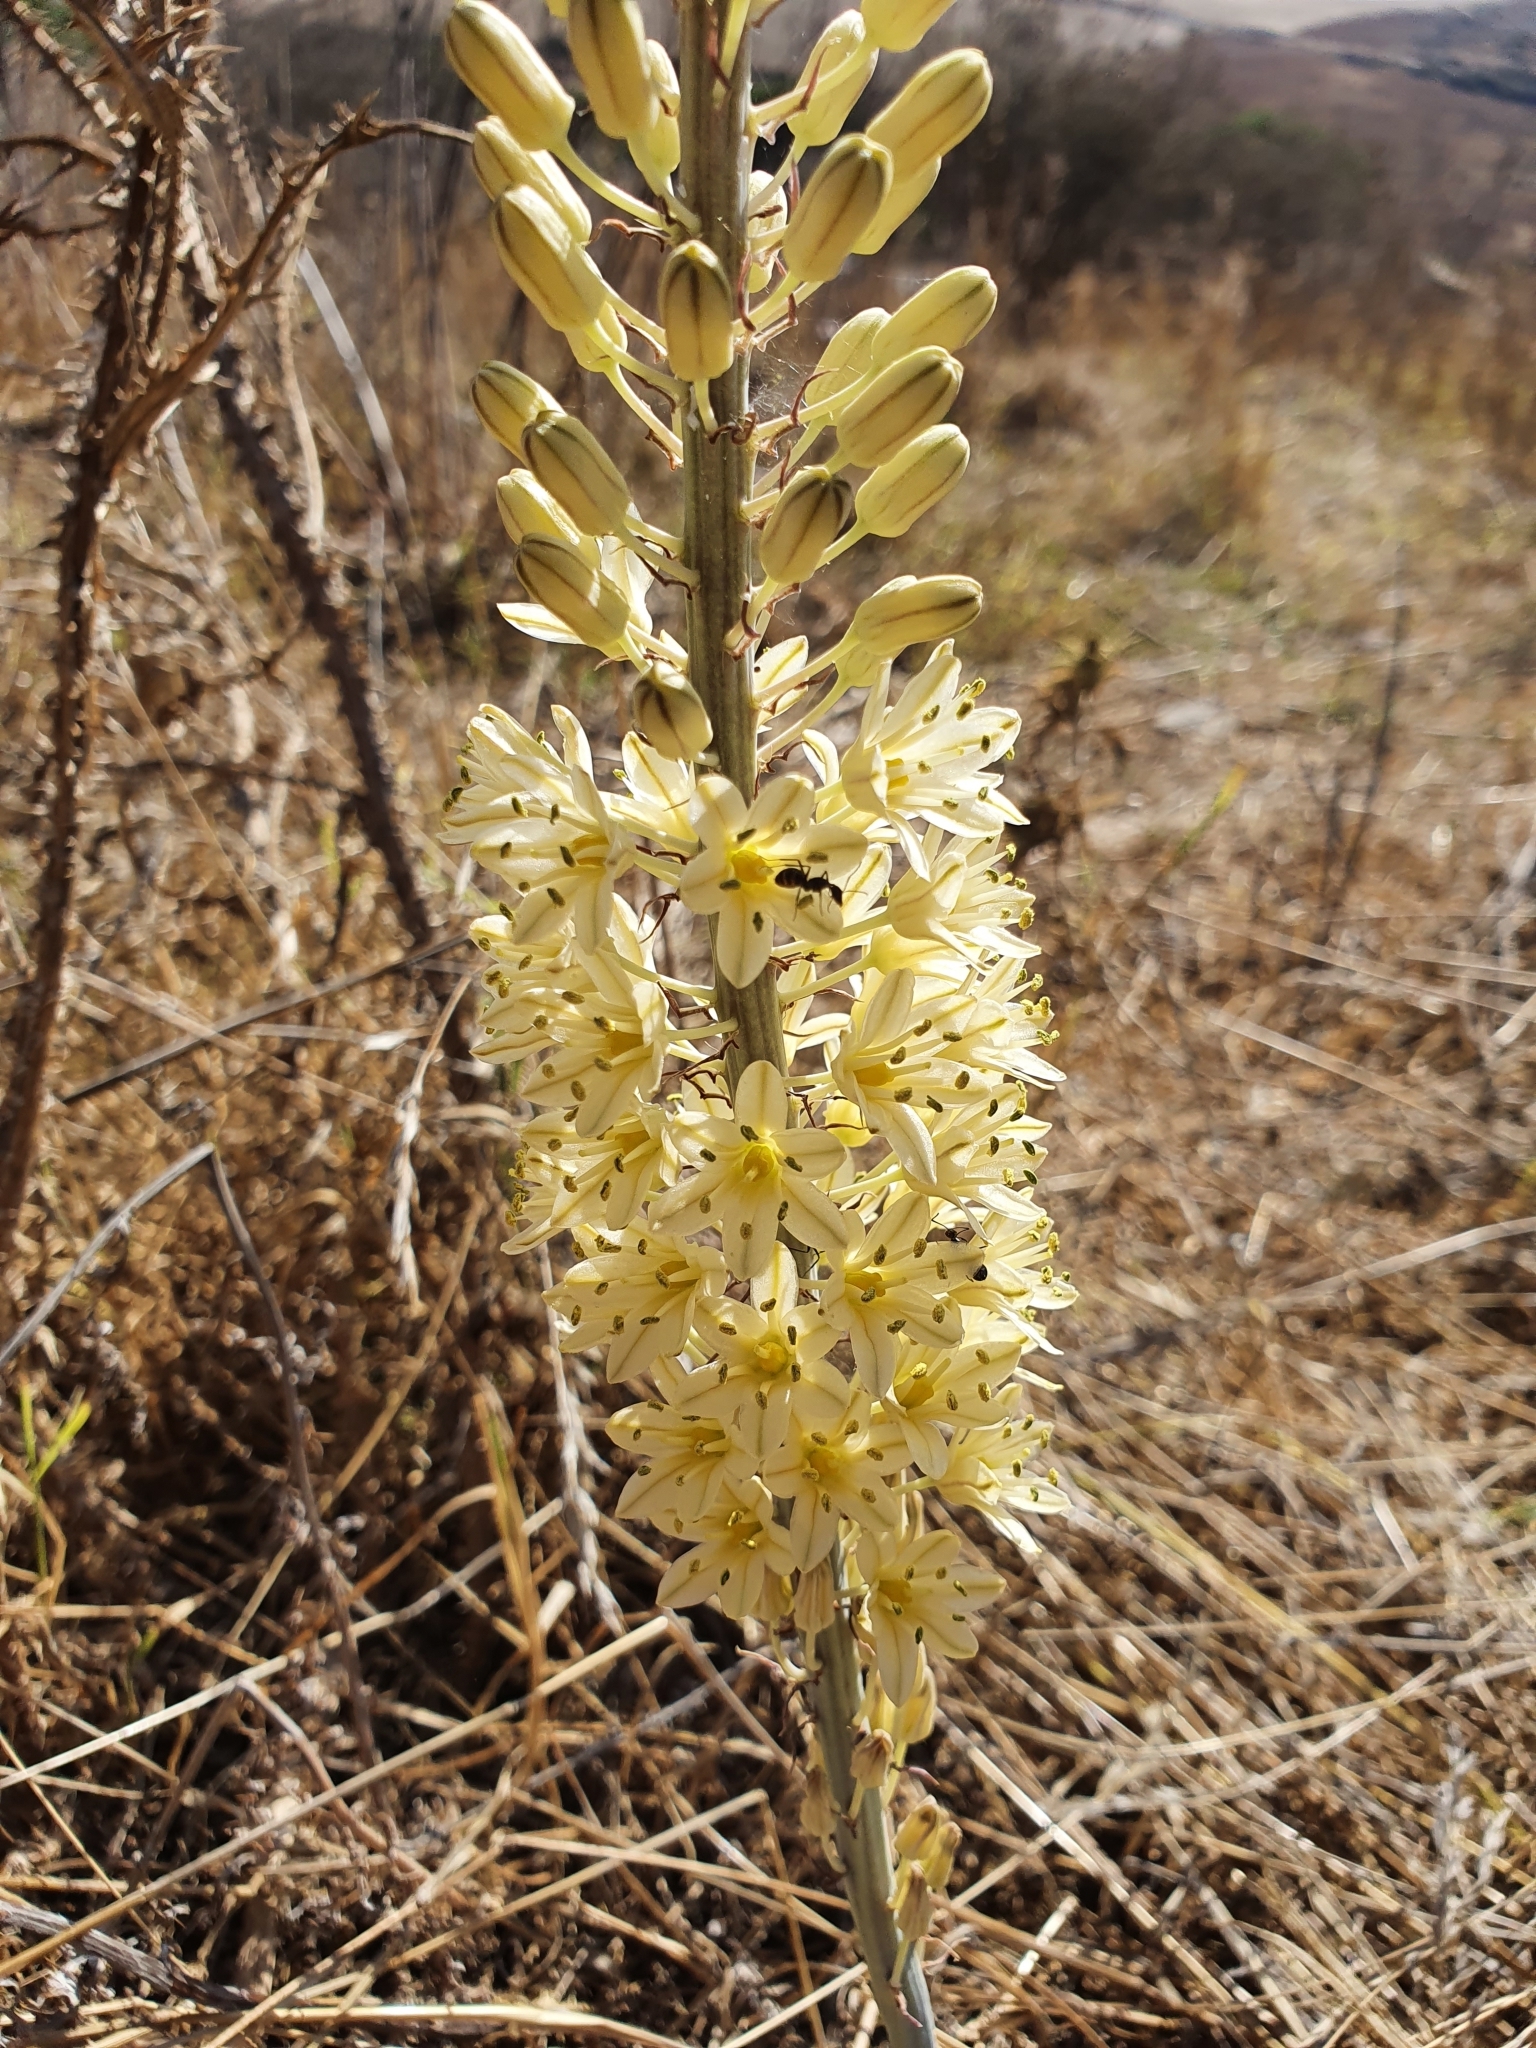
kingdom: Plantae
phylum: Tracheophyta
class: Liliopsida
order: Asparagales
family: Asparagaceae
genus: Drimia
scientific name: Drimia anthericoides
